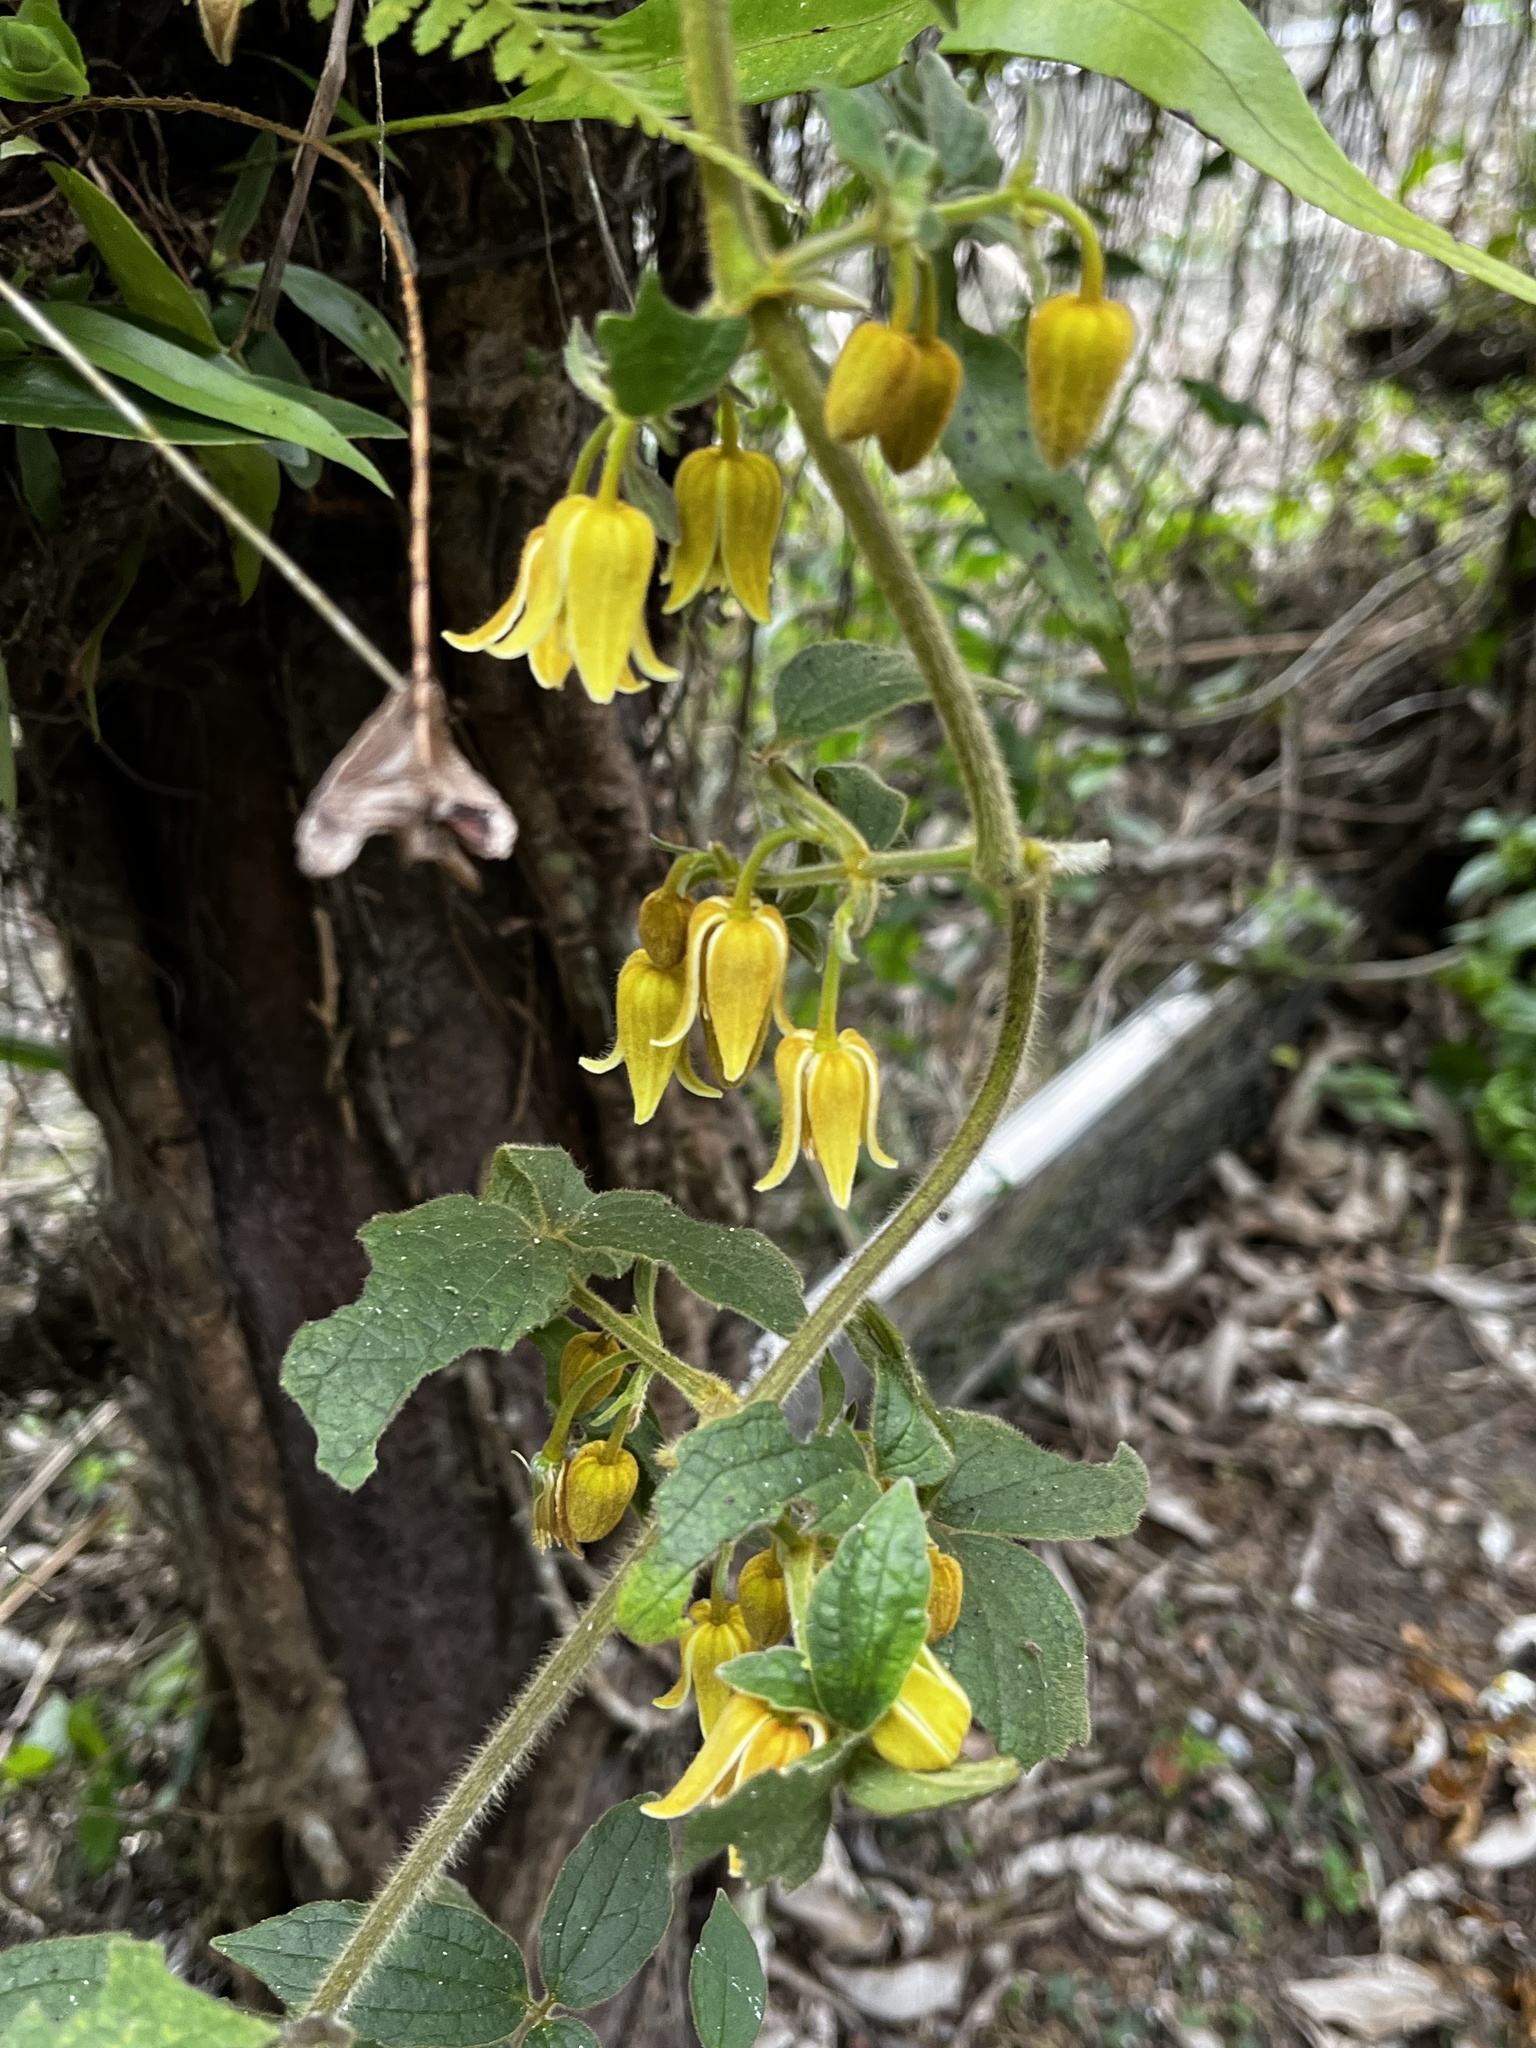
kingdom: Plantae
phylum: Tracheophyta
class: Magnoliopsida
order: Ranunculales
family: Ranunculaceae
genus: Clematis
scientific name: Clematis leschenaultiana
